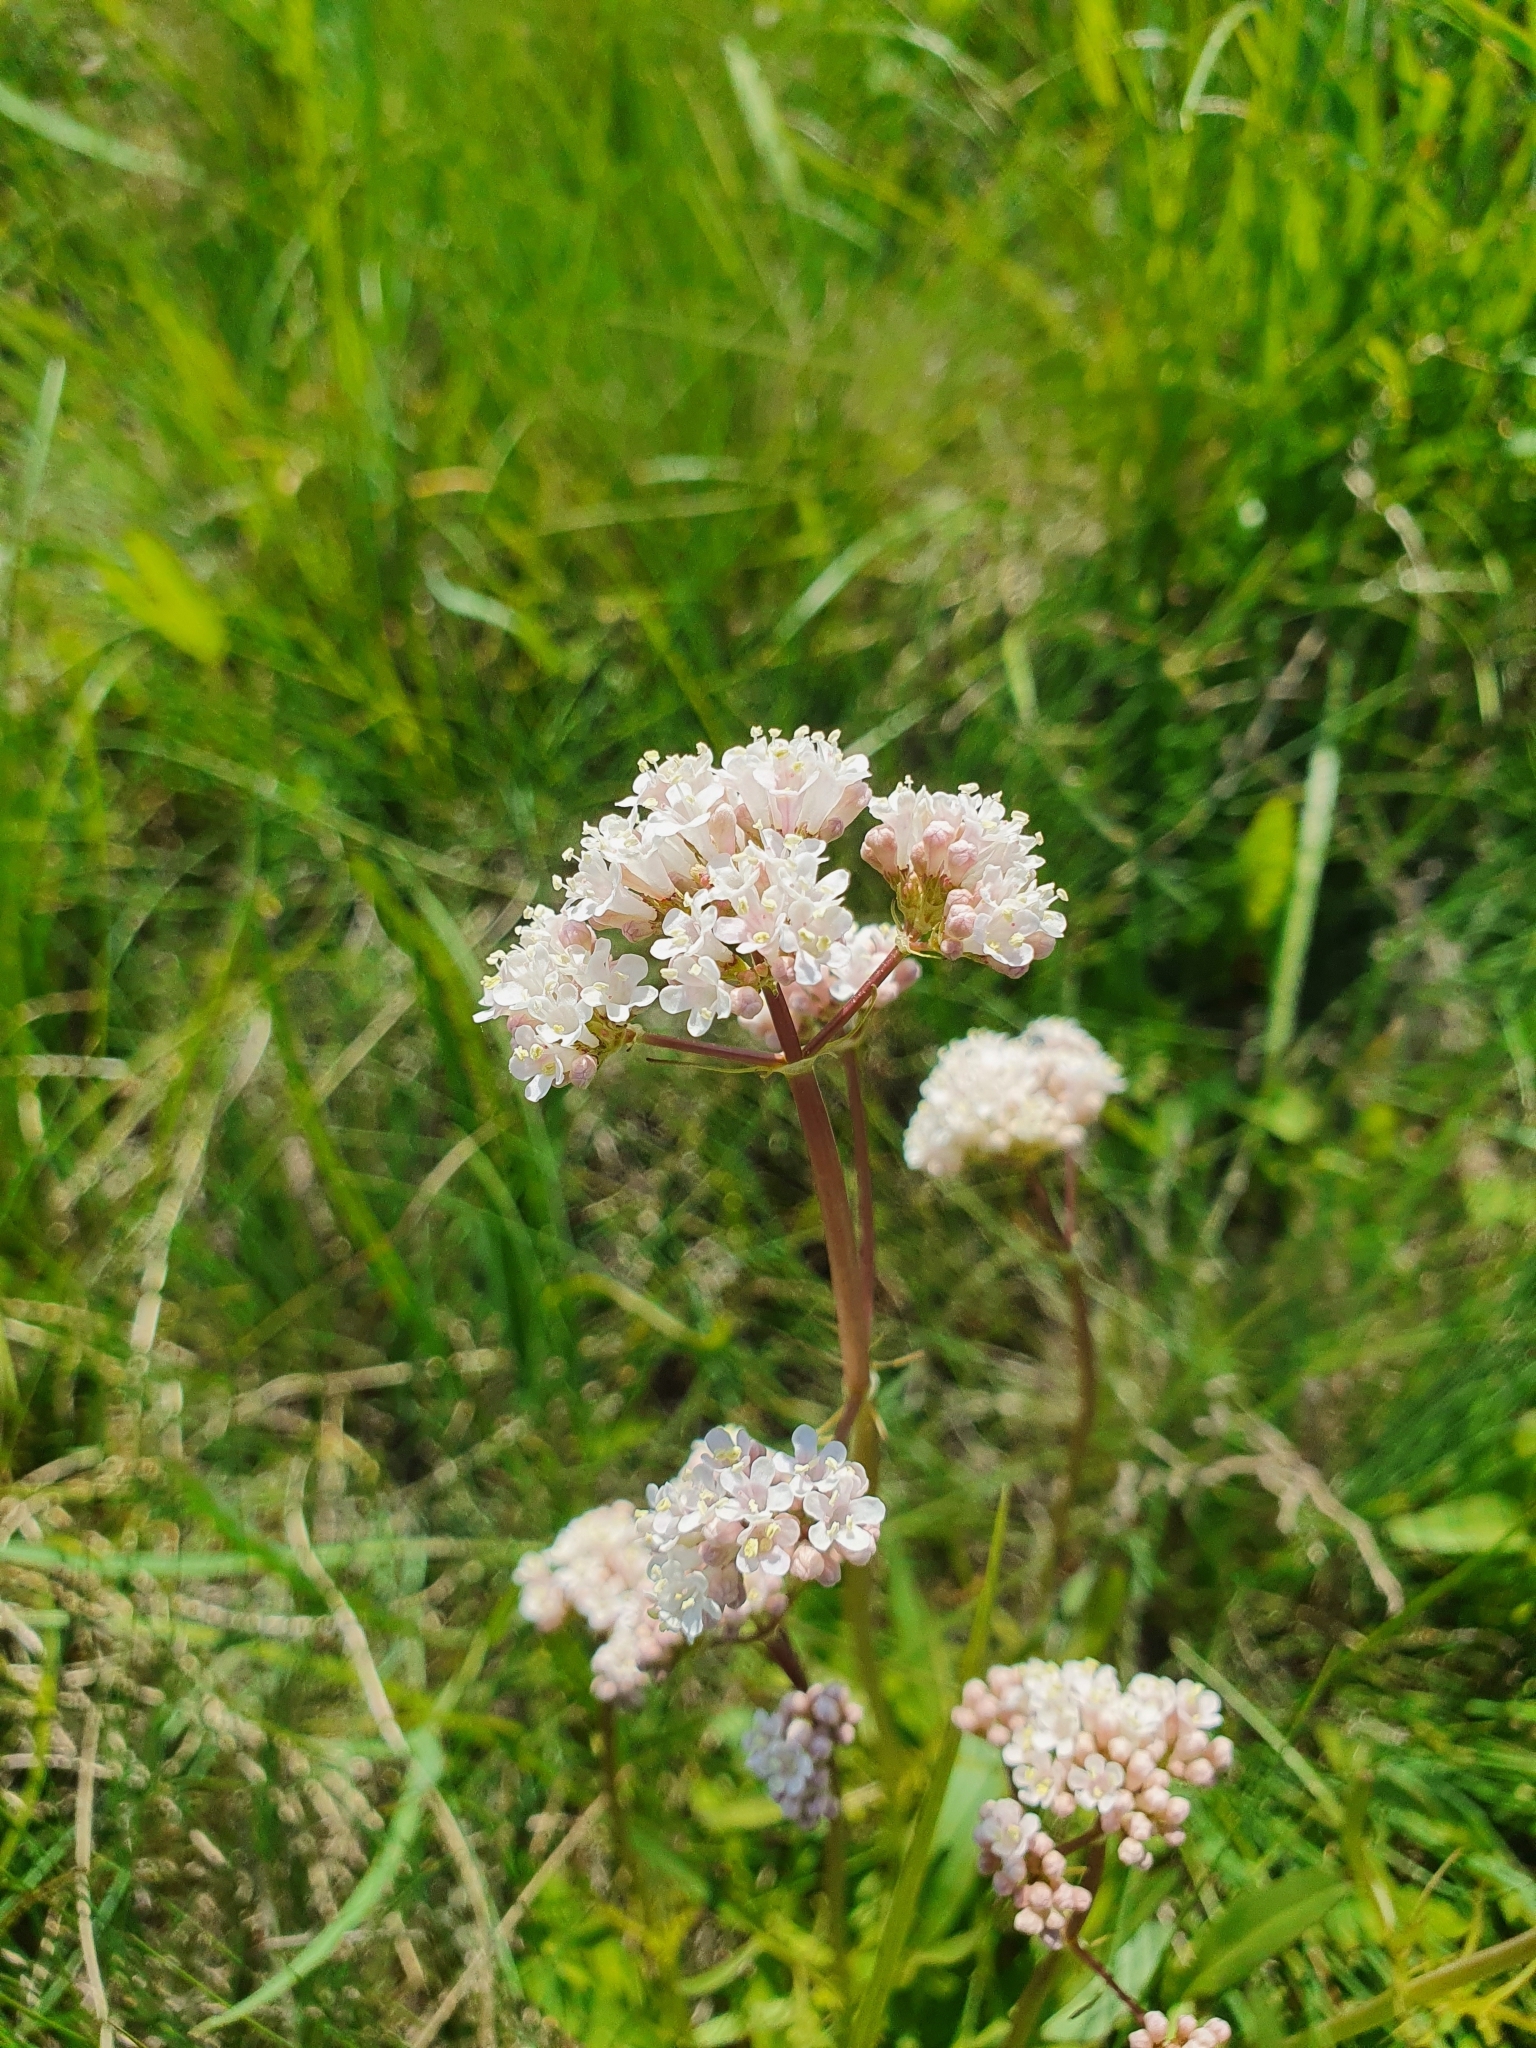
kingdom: Plantae
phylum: Tracheophyta
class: Magnoliopsida
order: Dipsacales
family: Caprifoliaceae
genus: Valeriana
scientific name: Valeriana tuberosa
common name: Tuberous valerian
